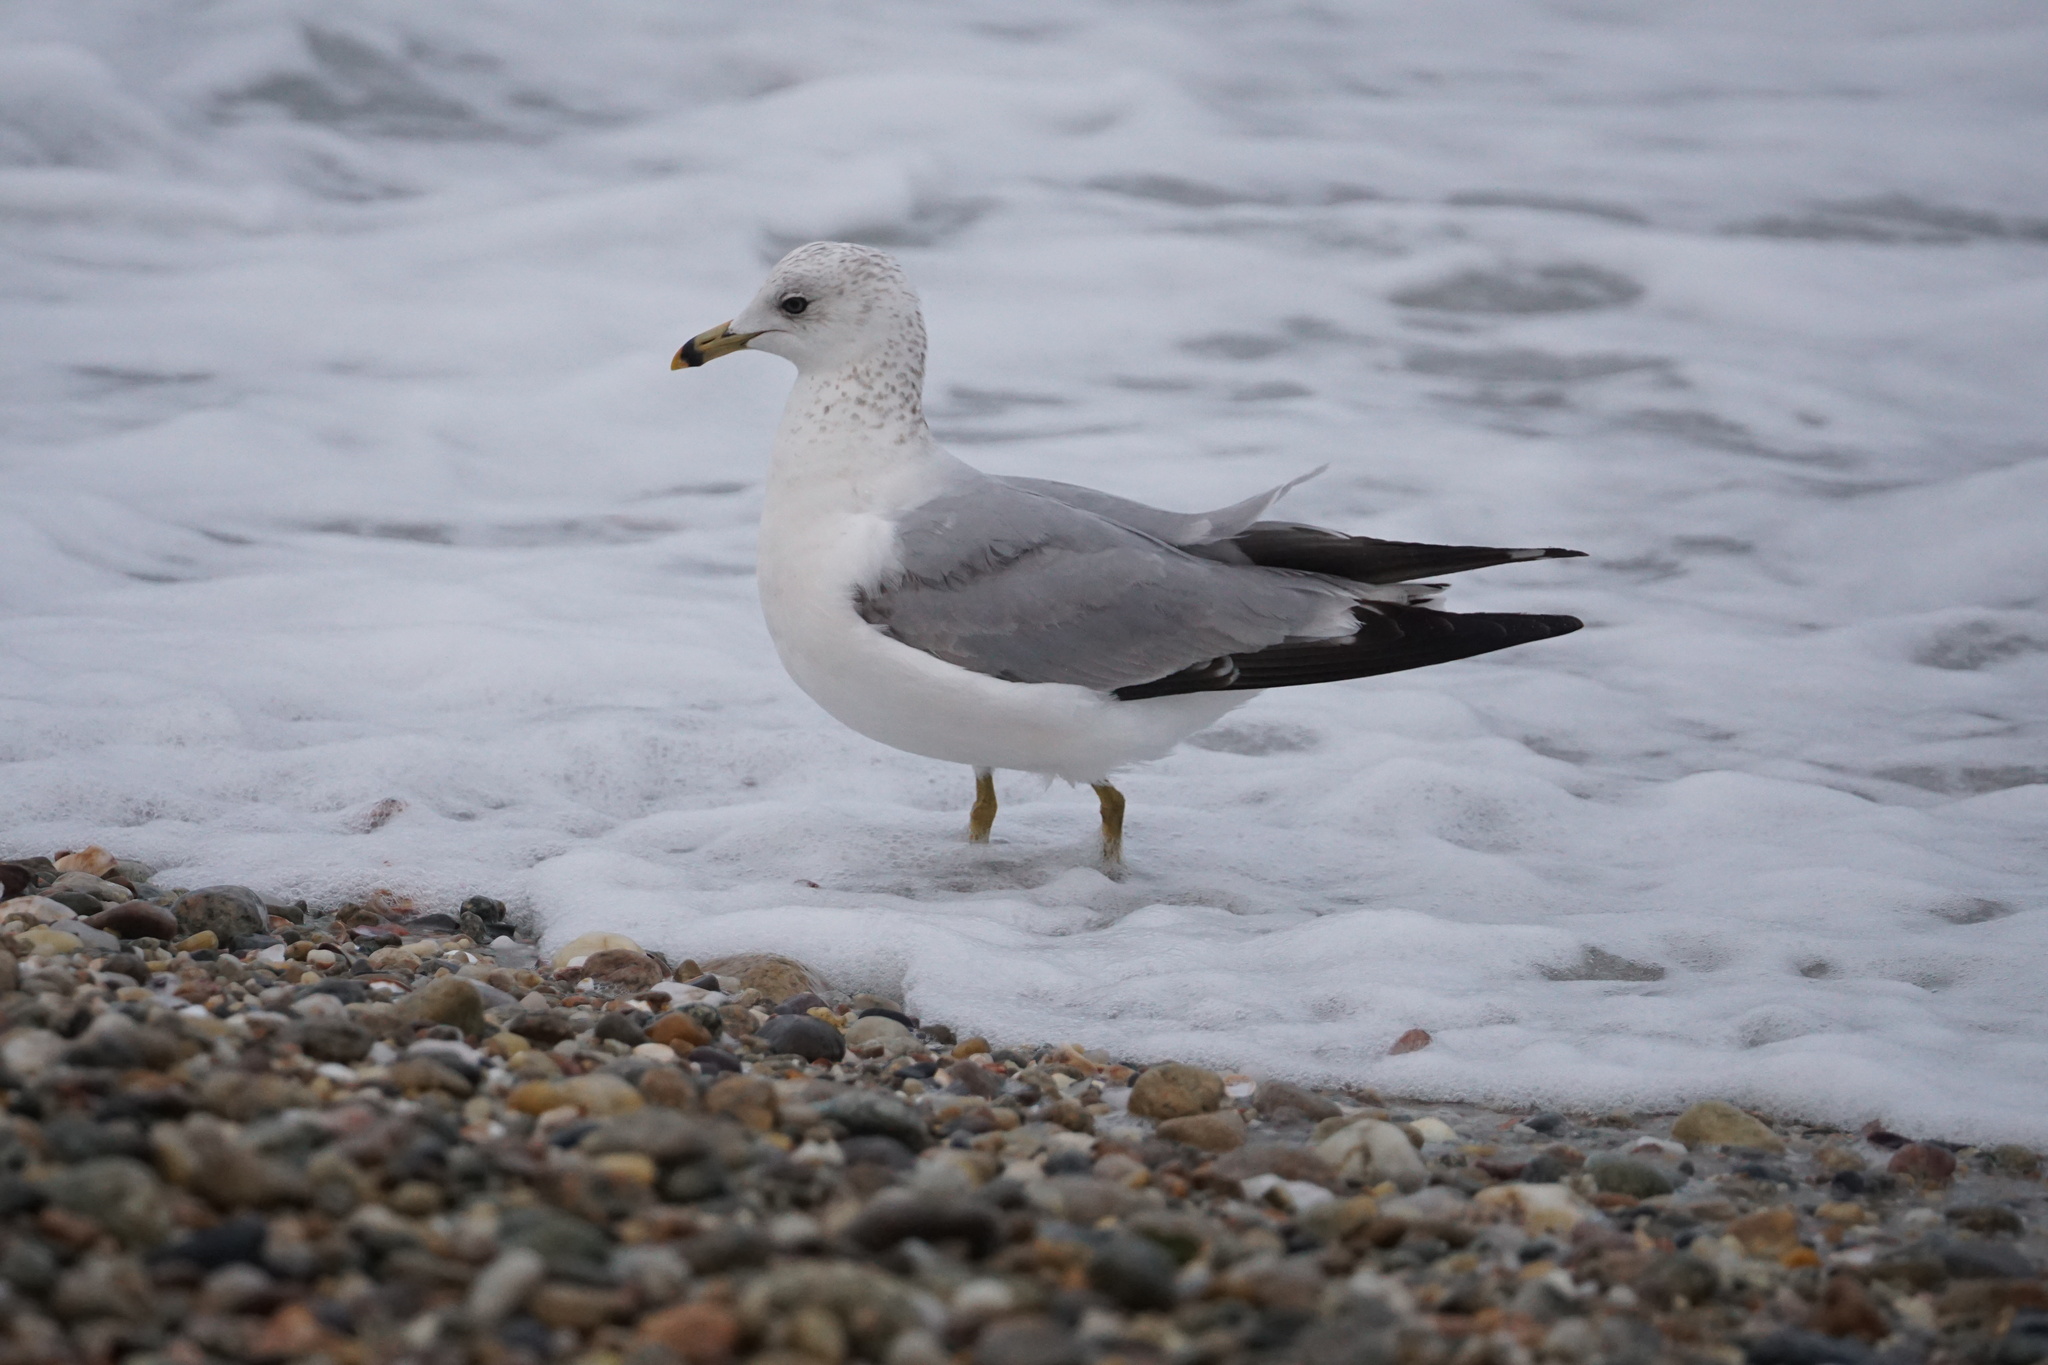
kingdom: Animalia
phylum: Chordata
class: Aves
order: Charadriiformes
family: Laridae
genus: Larus
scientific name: Larus delawarensis
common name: Ring-billed gull
